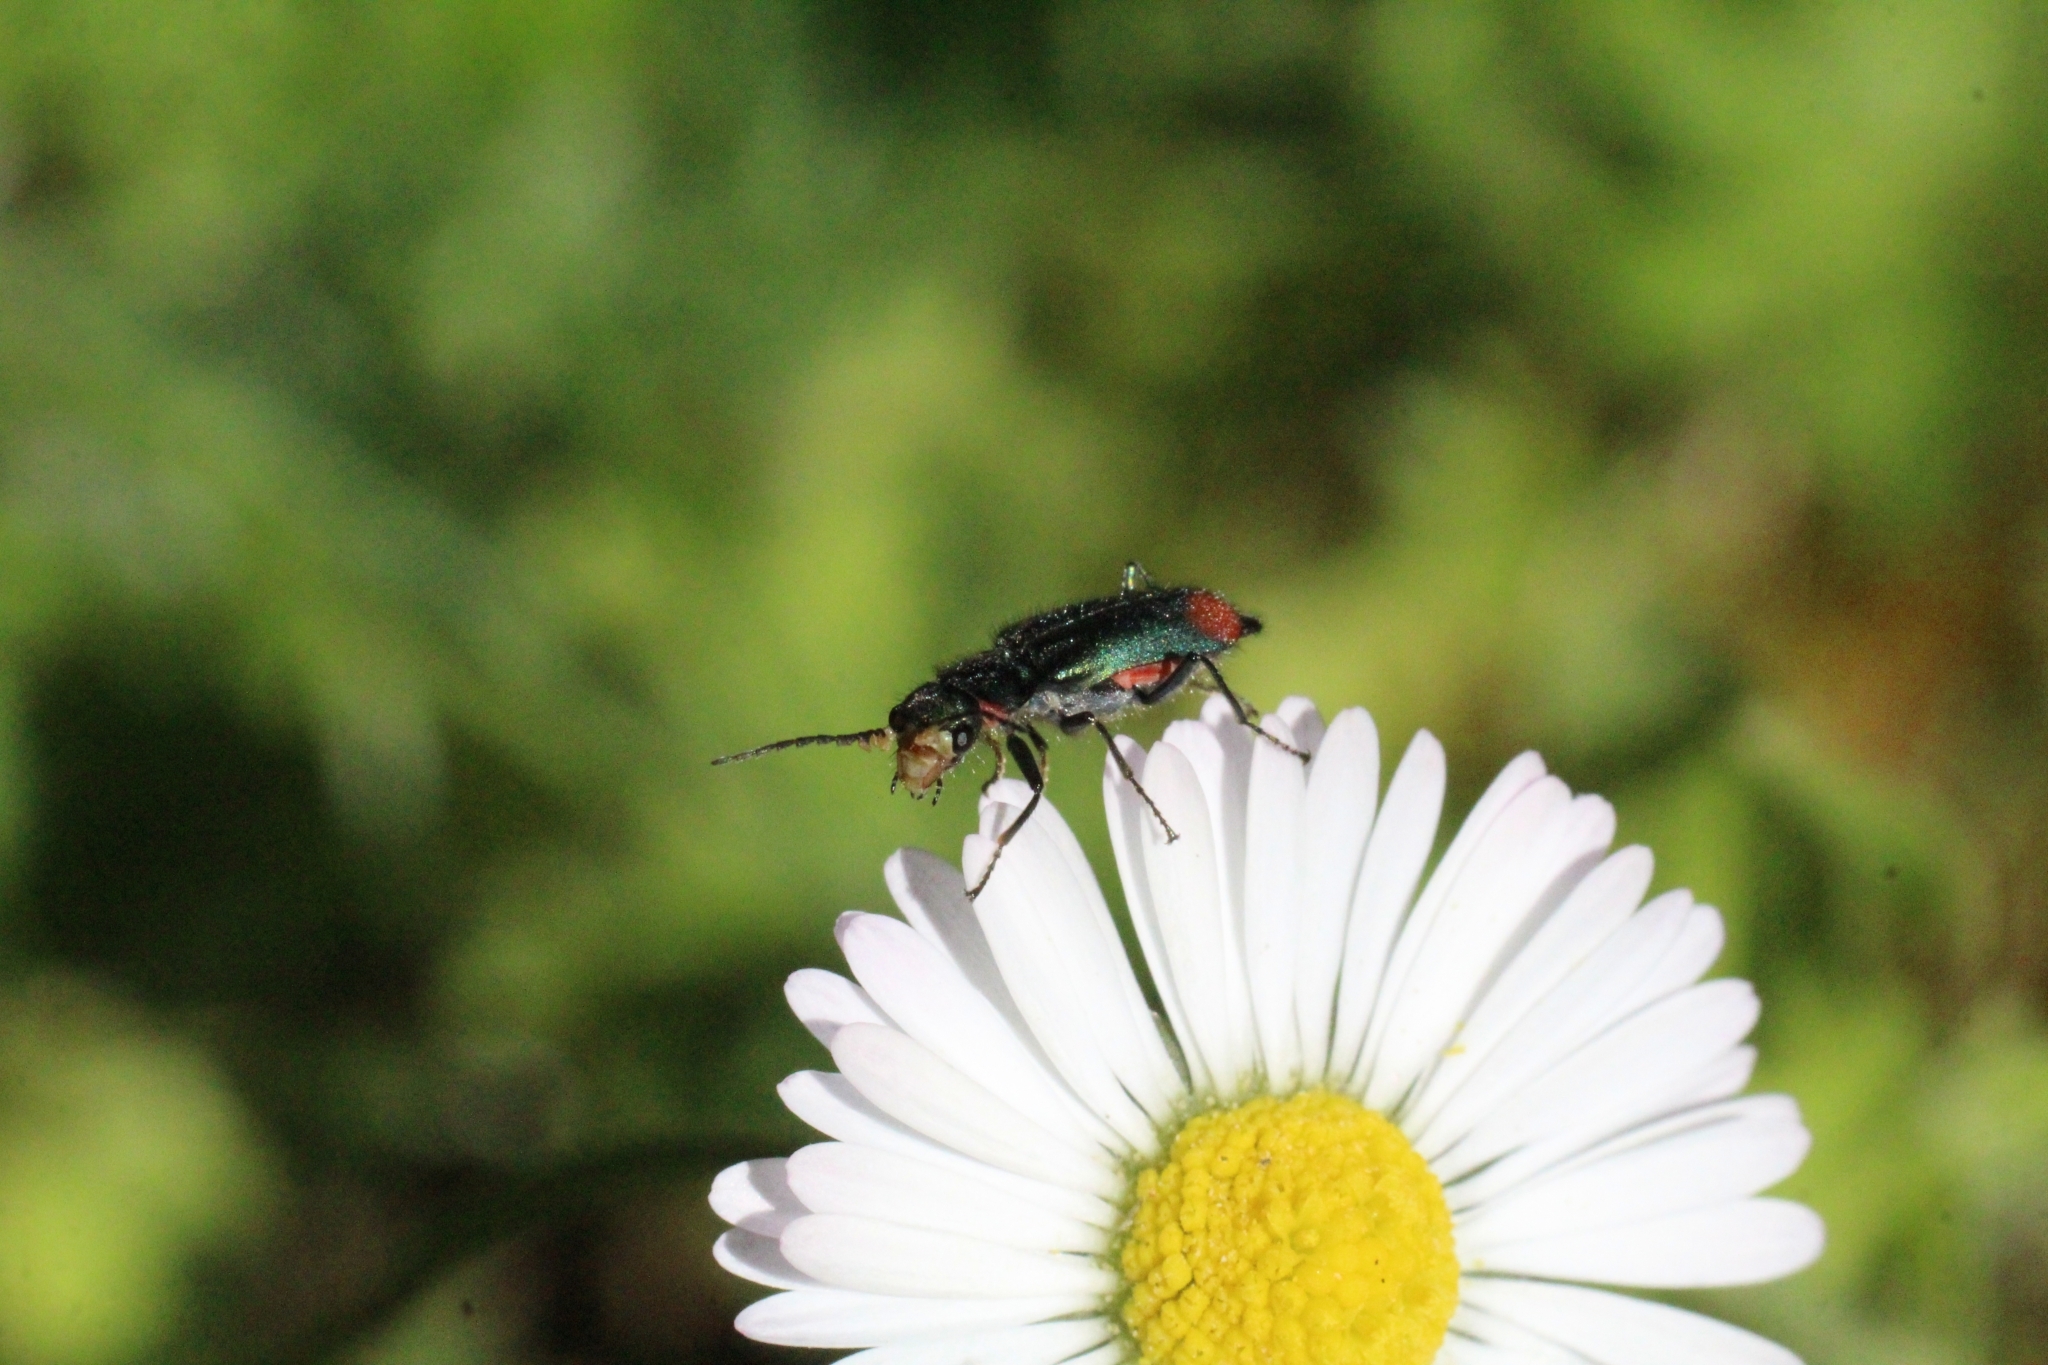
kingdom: Animalia
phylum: Arthropoda
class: Insecta
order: Coleoptera
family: Melyridae
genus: Malachius
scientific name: Malachius bipustulatus
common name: Malachite beetle
